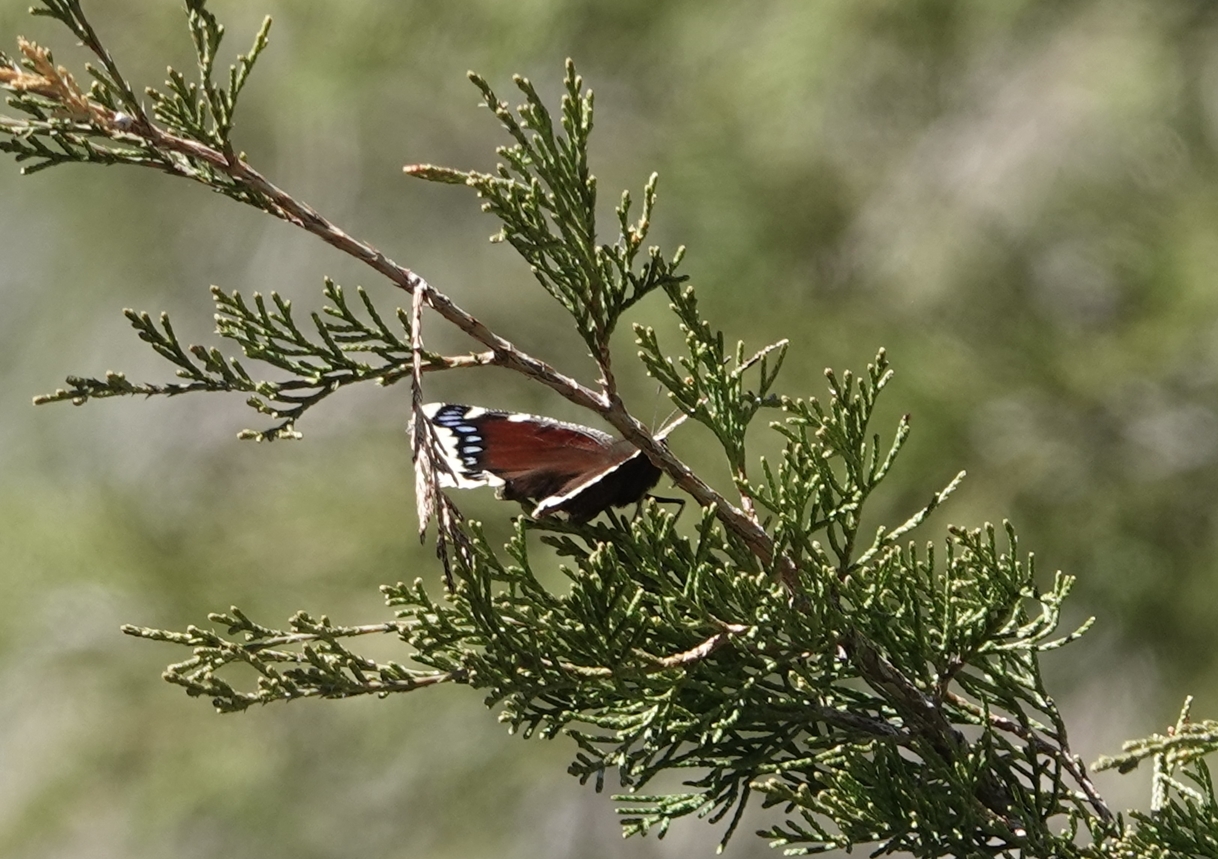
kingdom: Animalia
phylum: Arthropoda
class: Insecta
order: Lepidoptera
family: Nymphalidae
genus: Nymphalis
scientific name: Nymphalis antiopa
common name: Camberwell beauty
